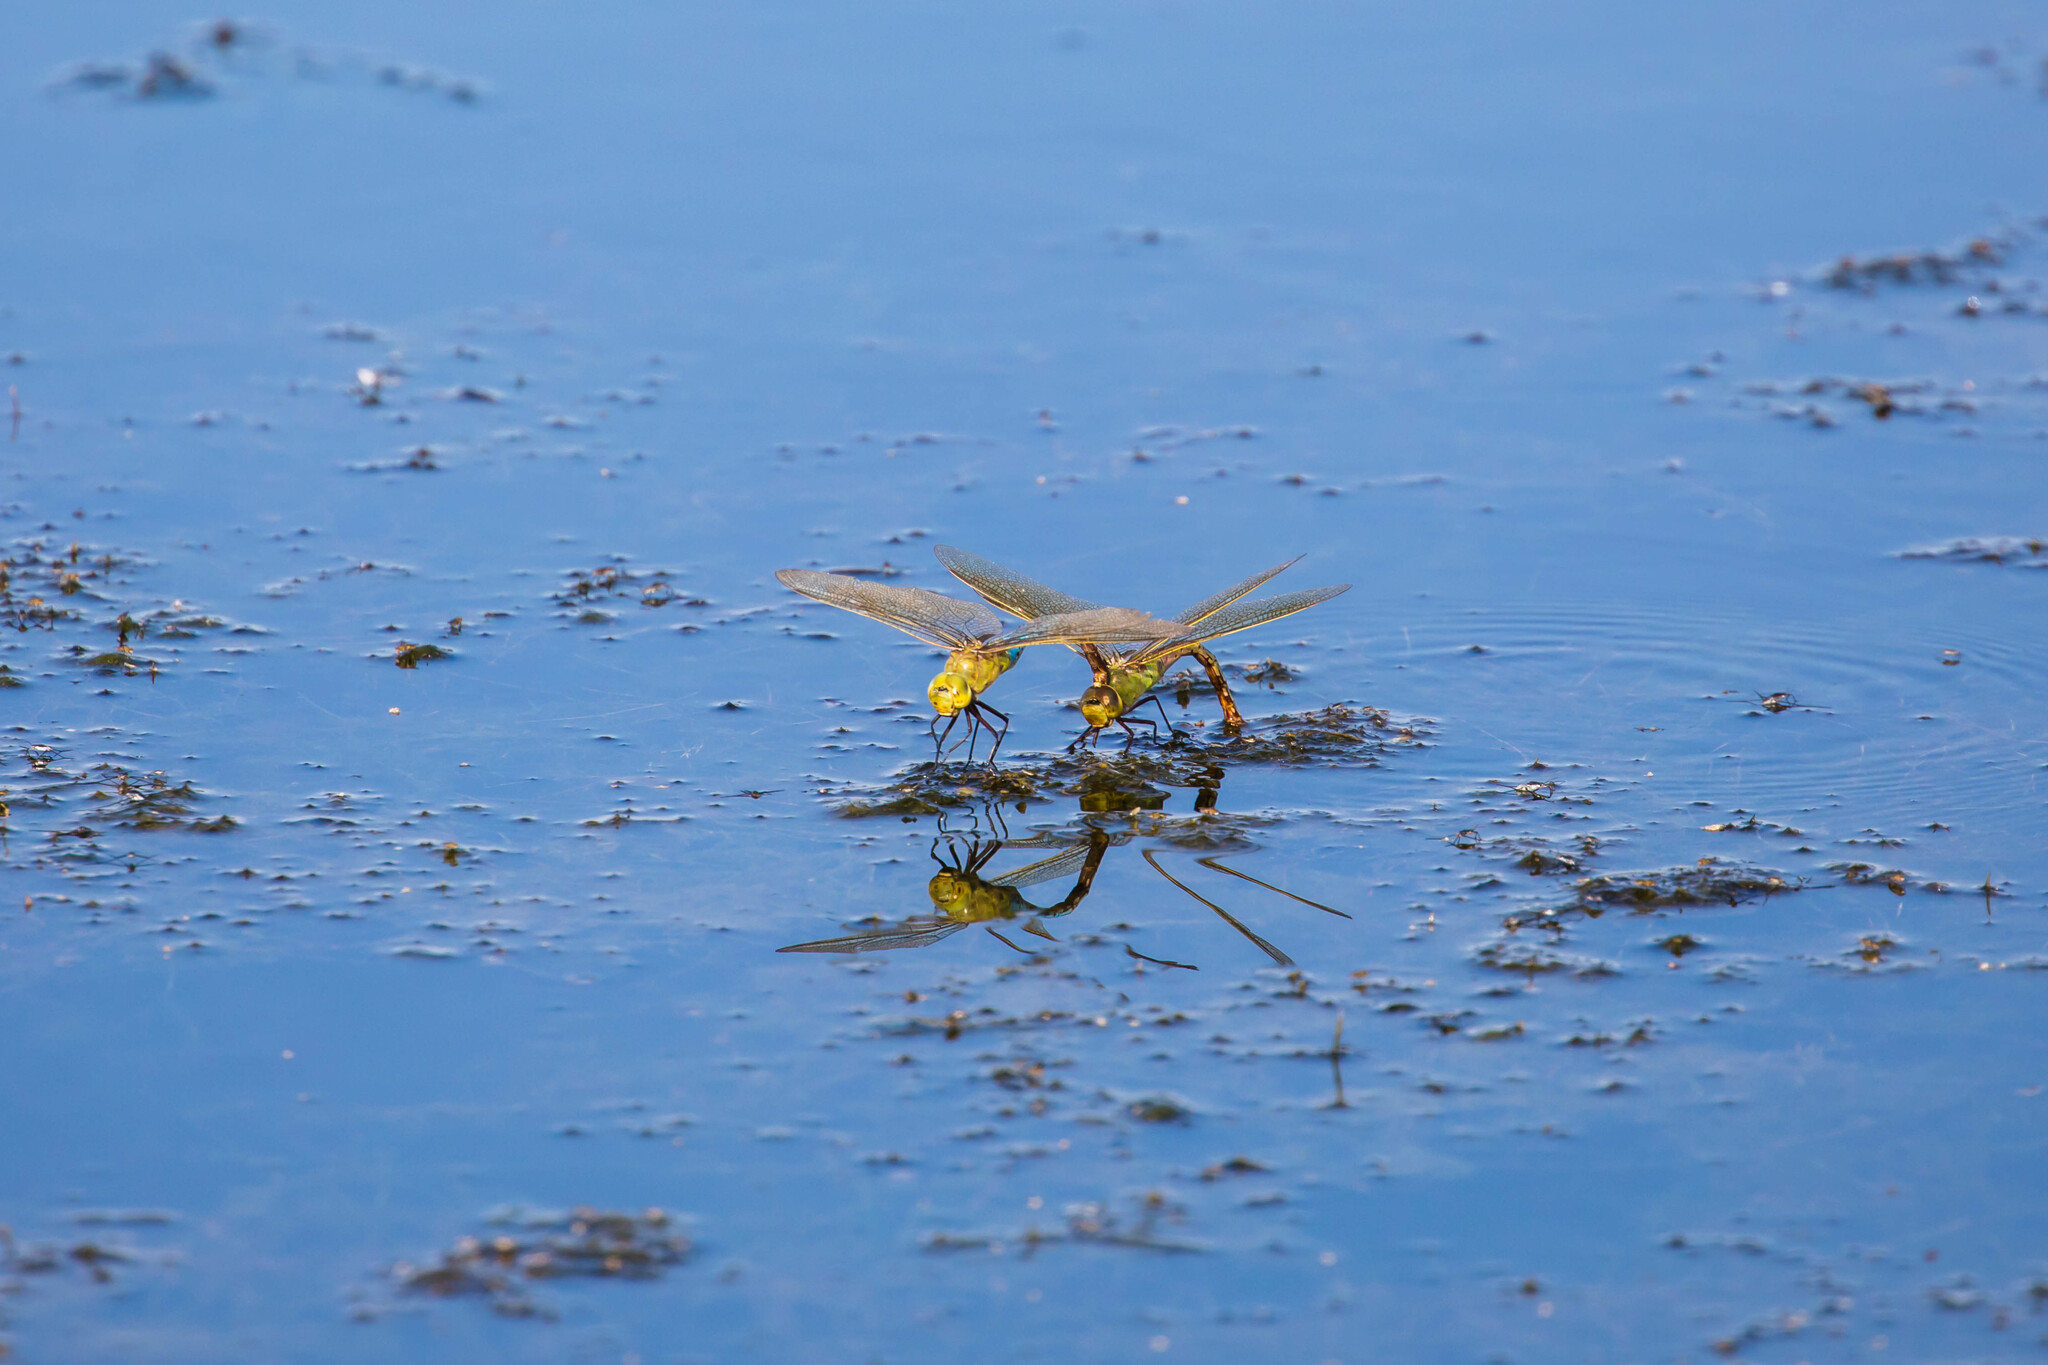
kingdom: Animalia
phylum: Arthropoda
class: Insecta
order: Odonata
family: Aeshnidae
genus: Anax
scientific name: Anax junius
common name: Common green darner
